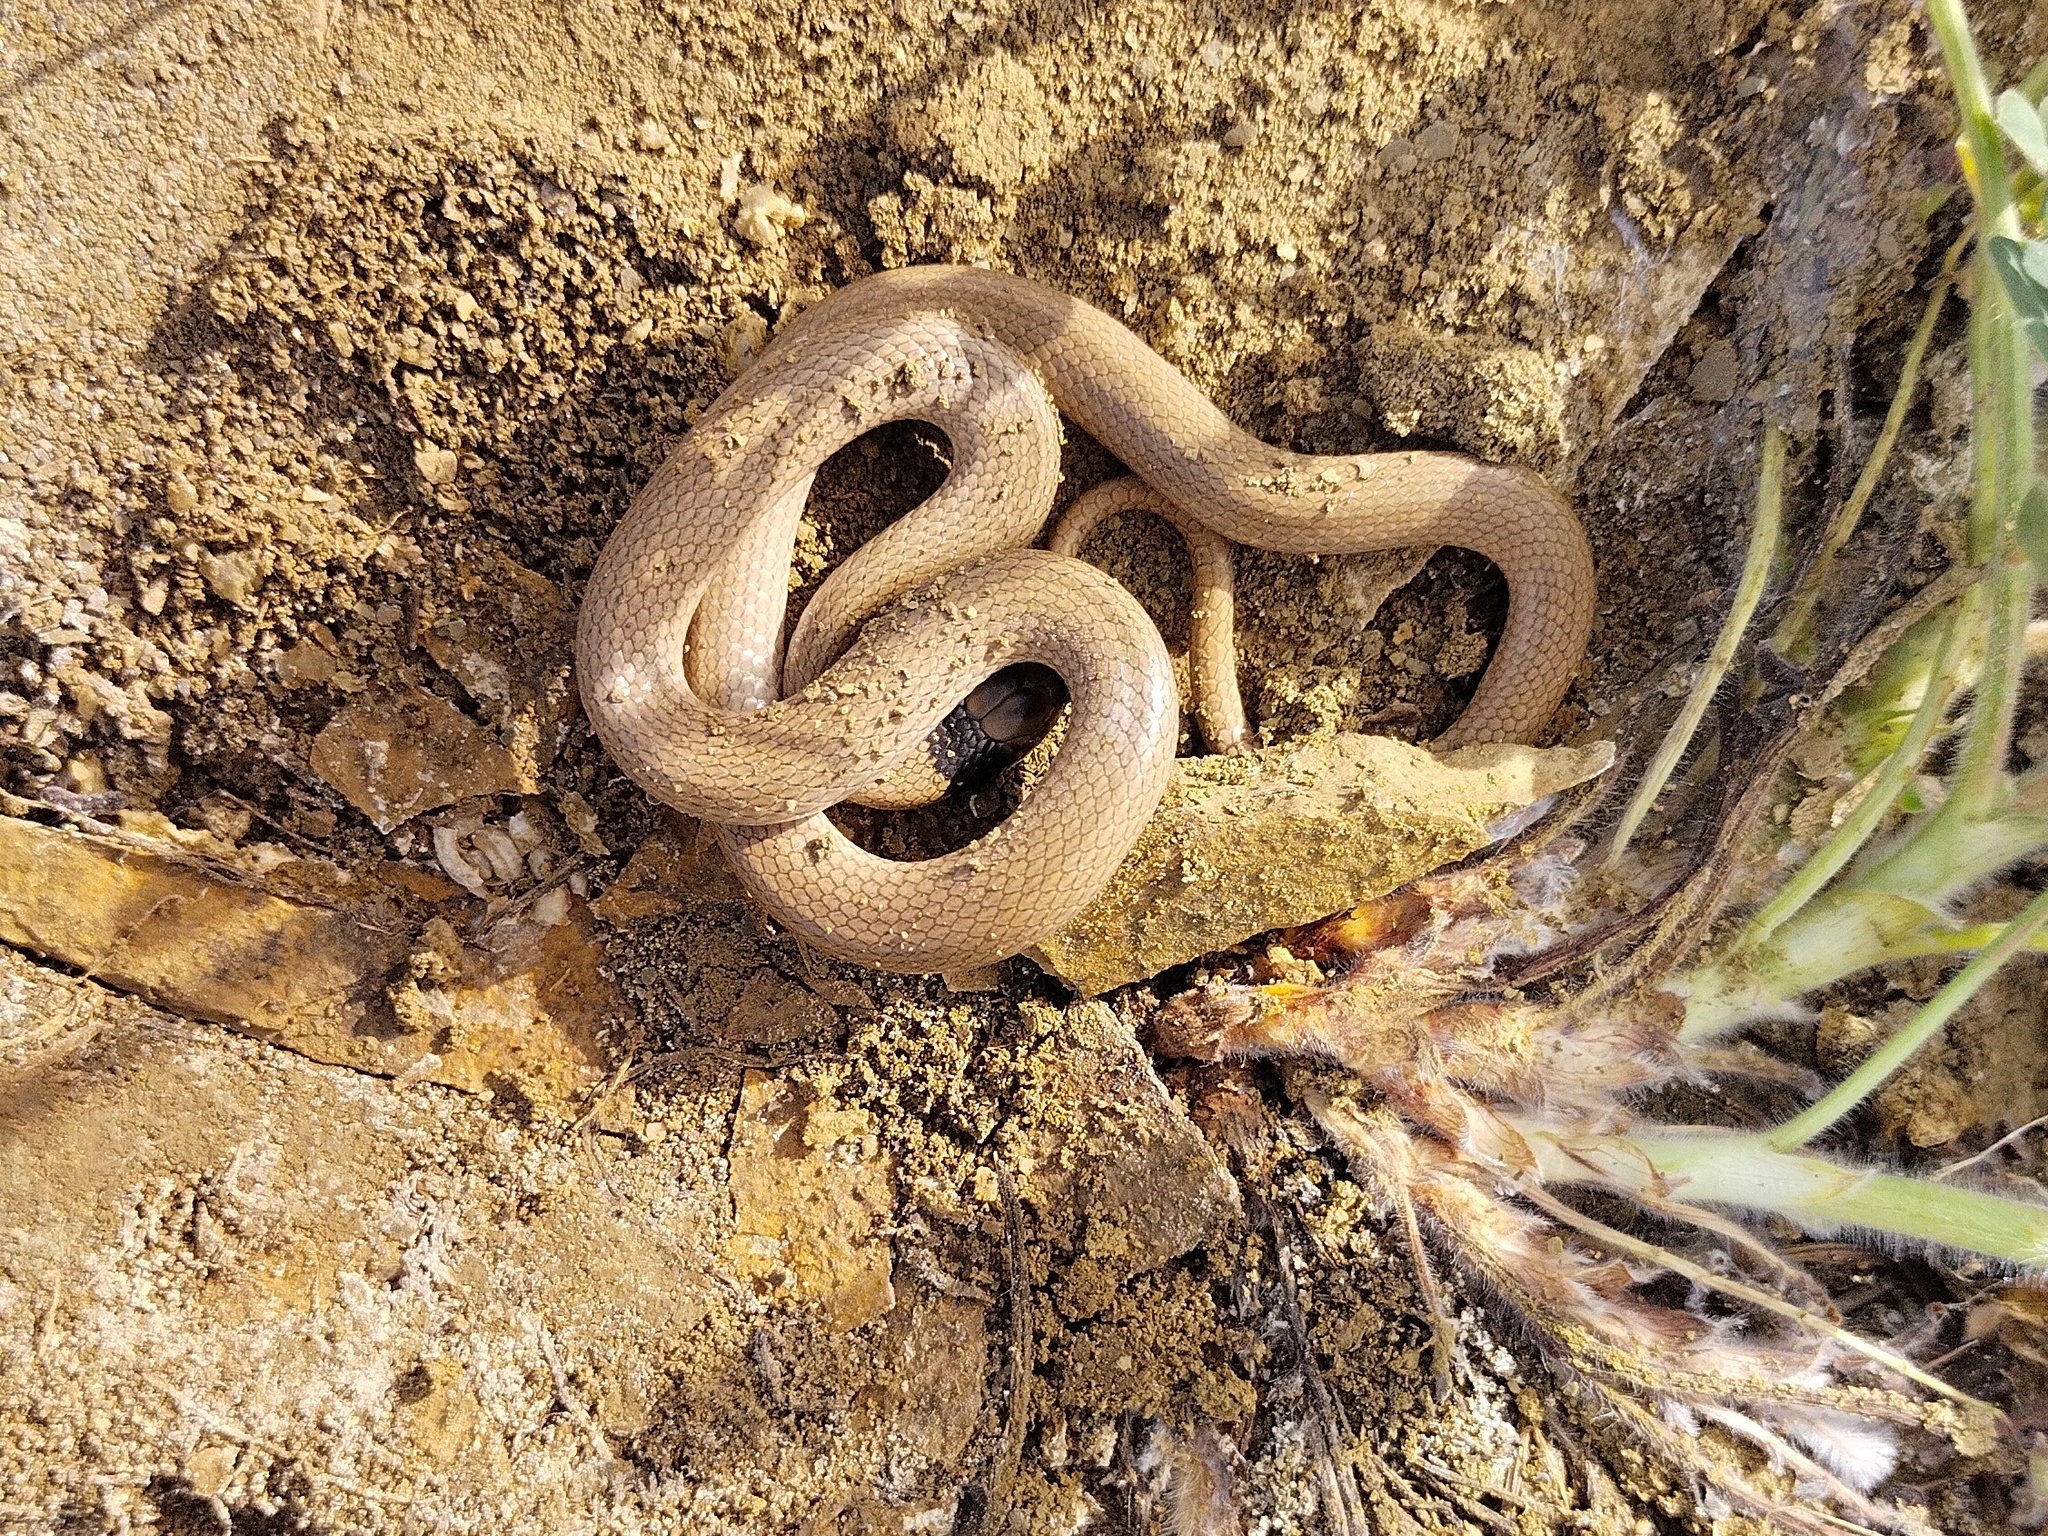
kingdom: Animalia
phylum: Chordata
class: Squamata
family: Colubridae
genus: Eirenis
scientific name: Eirenis collaris
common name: Collared dwarf racer
